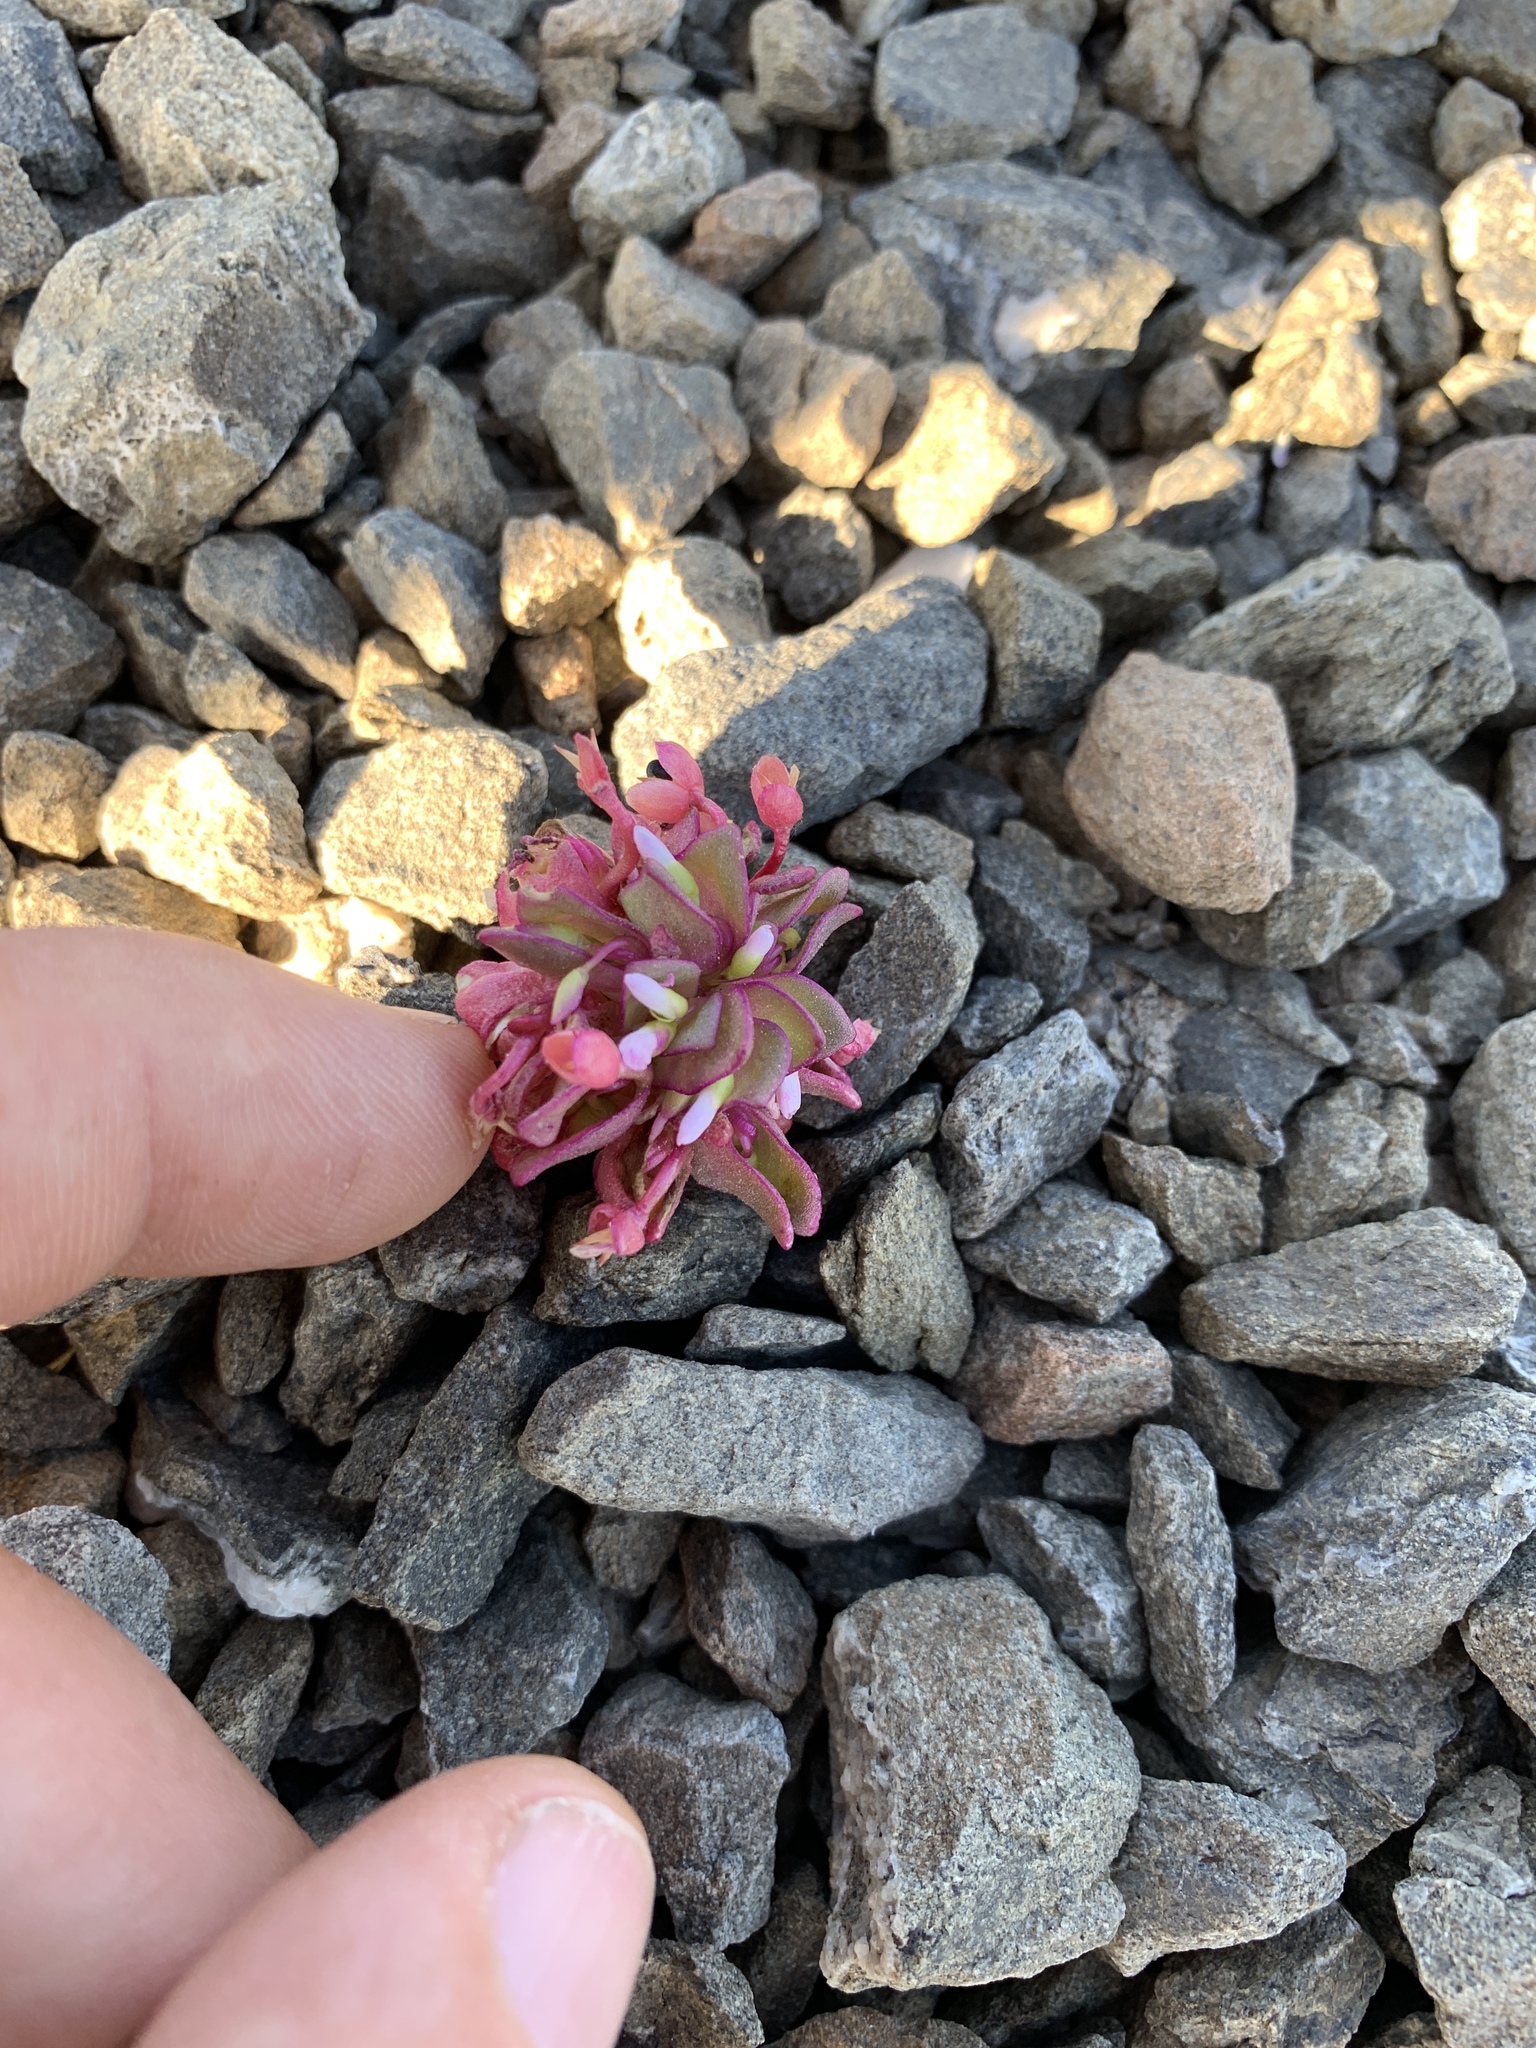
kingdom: Plantae
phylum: Tracheophyta
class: Magnoliopsida
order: Caryophyllales
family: Montiaceae
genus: Claytonia
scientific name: Claytonia saxosa
